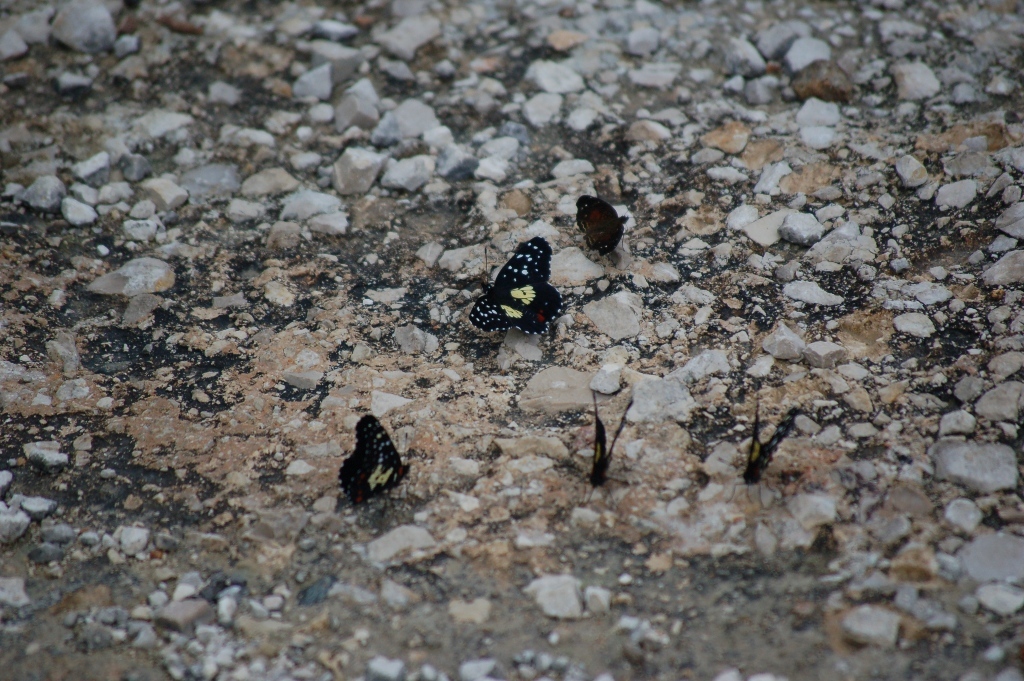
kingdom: Animalia
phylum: Arthropoda
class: Insecta
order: Lepidoptera
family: Nymphalidae
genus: Chlosyne
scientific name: Chlosyne erodyle
